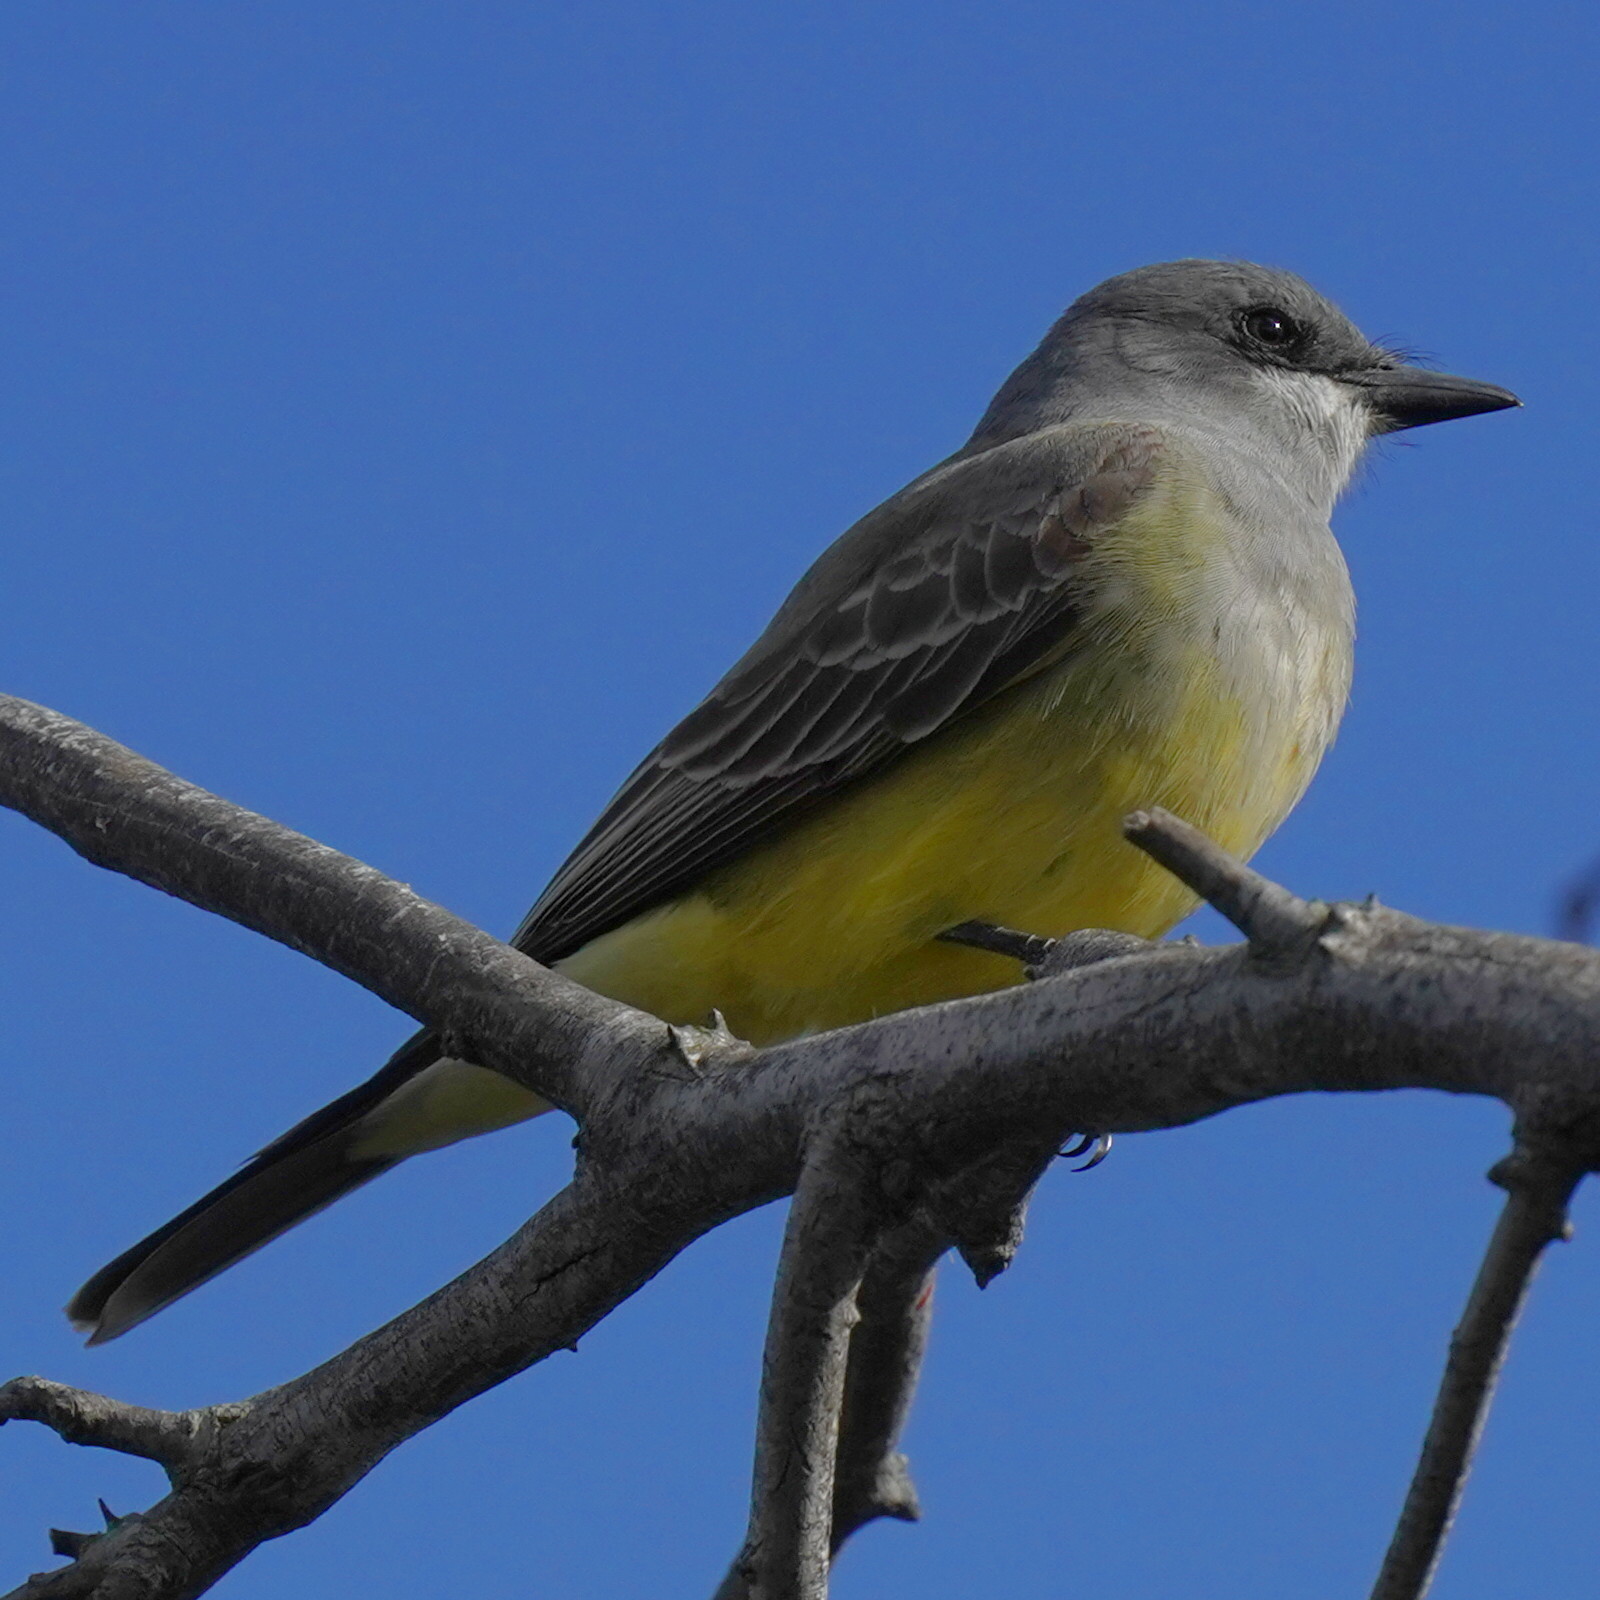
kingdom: Animalia
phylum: Chordata
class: Aves
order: Passeriformes
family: Tyrannidae
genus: Tyrannus
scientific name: Tyrannus vociferans
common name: Cassin's kingbird
